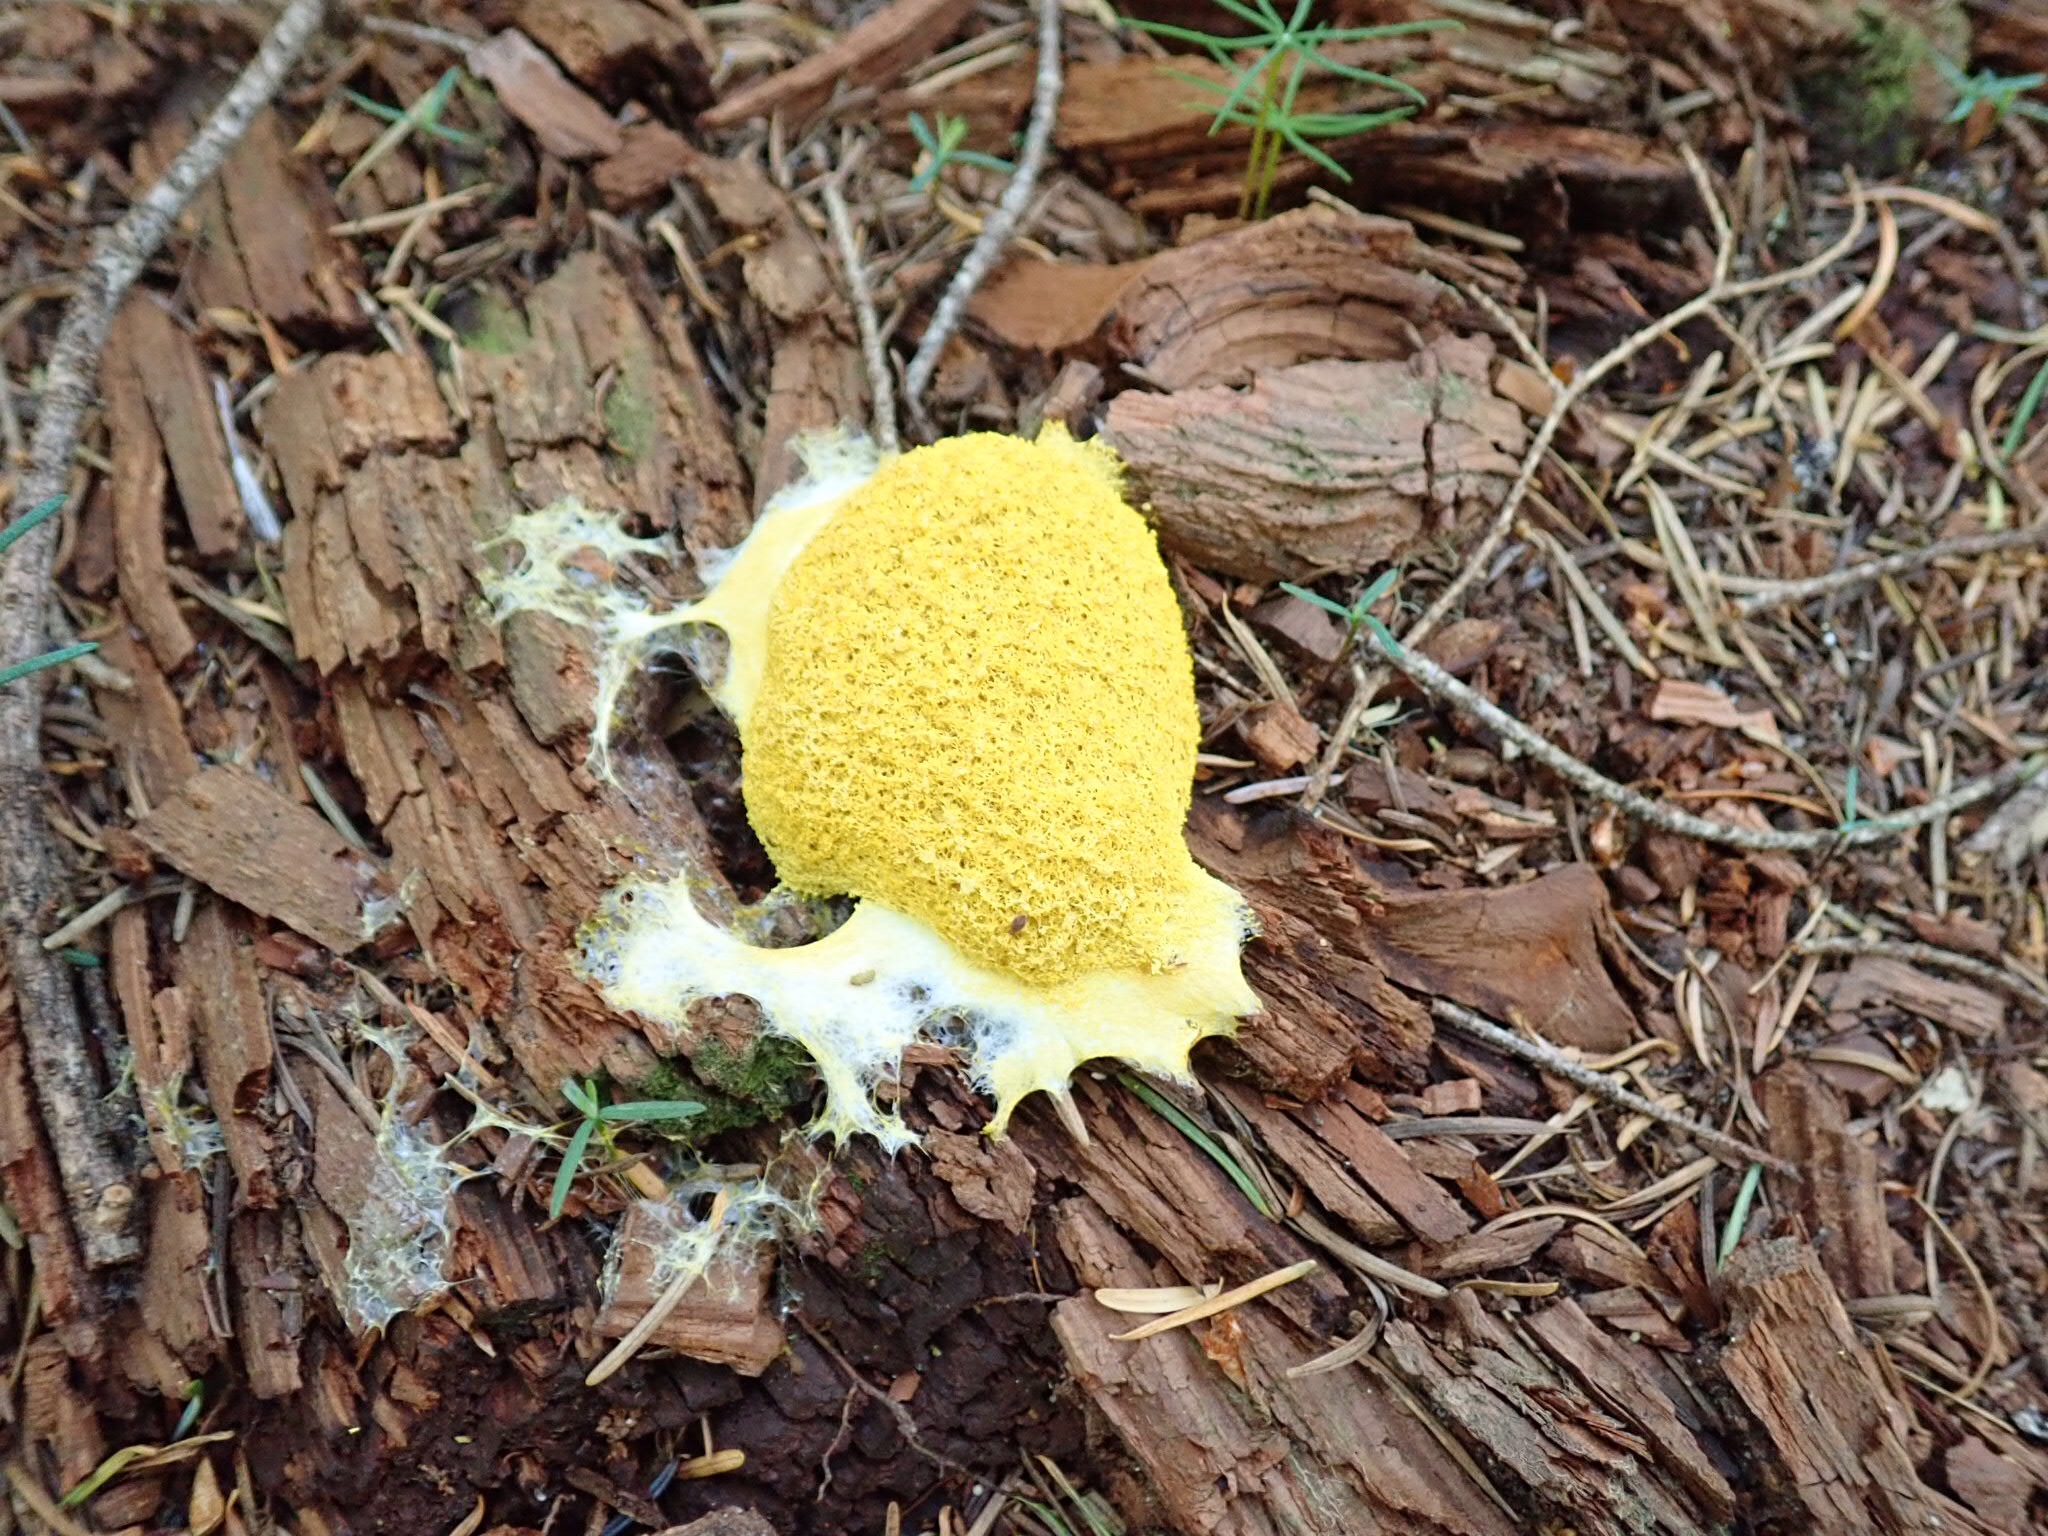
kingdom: Protozoa
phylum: Mycetozoa
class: Myxomycetes
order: Physarales
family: Physaraceae
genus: Fuligo
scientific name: Fuligo septica
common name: Dog vomit slime mold
